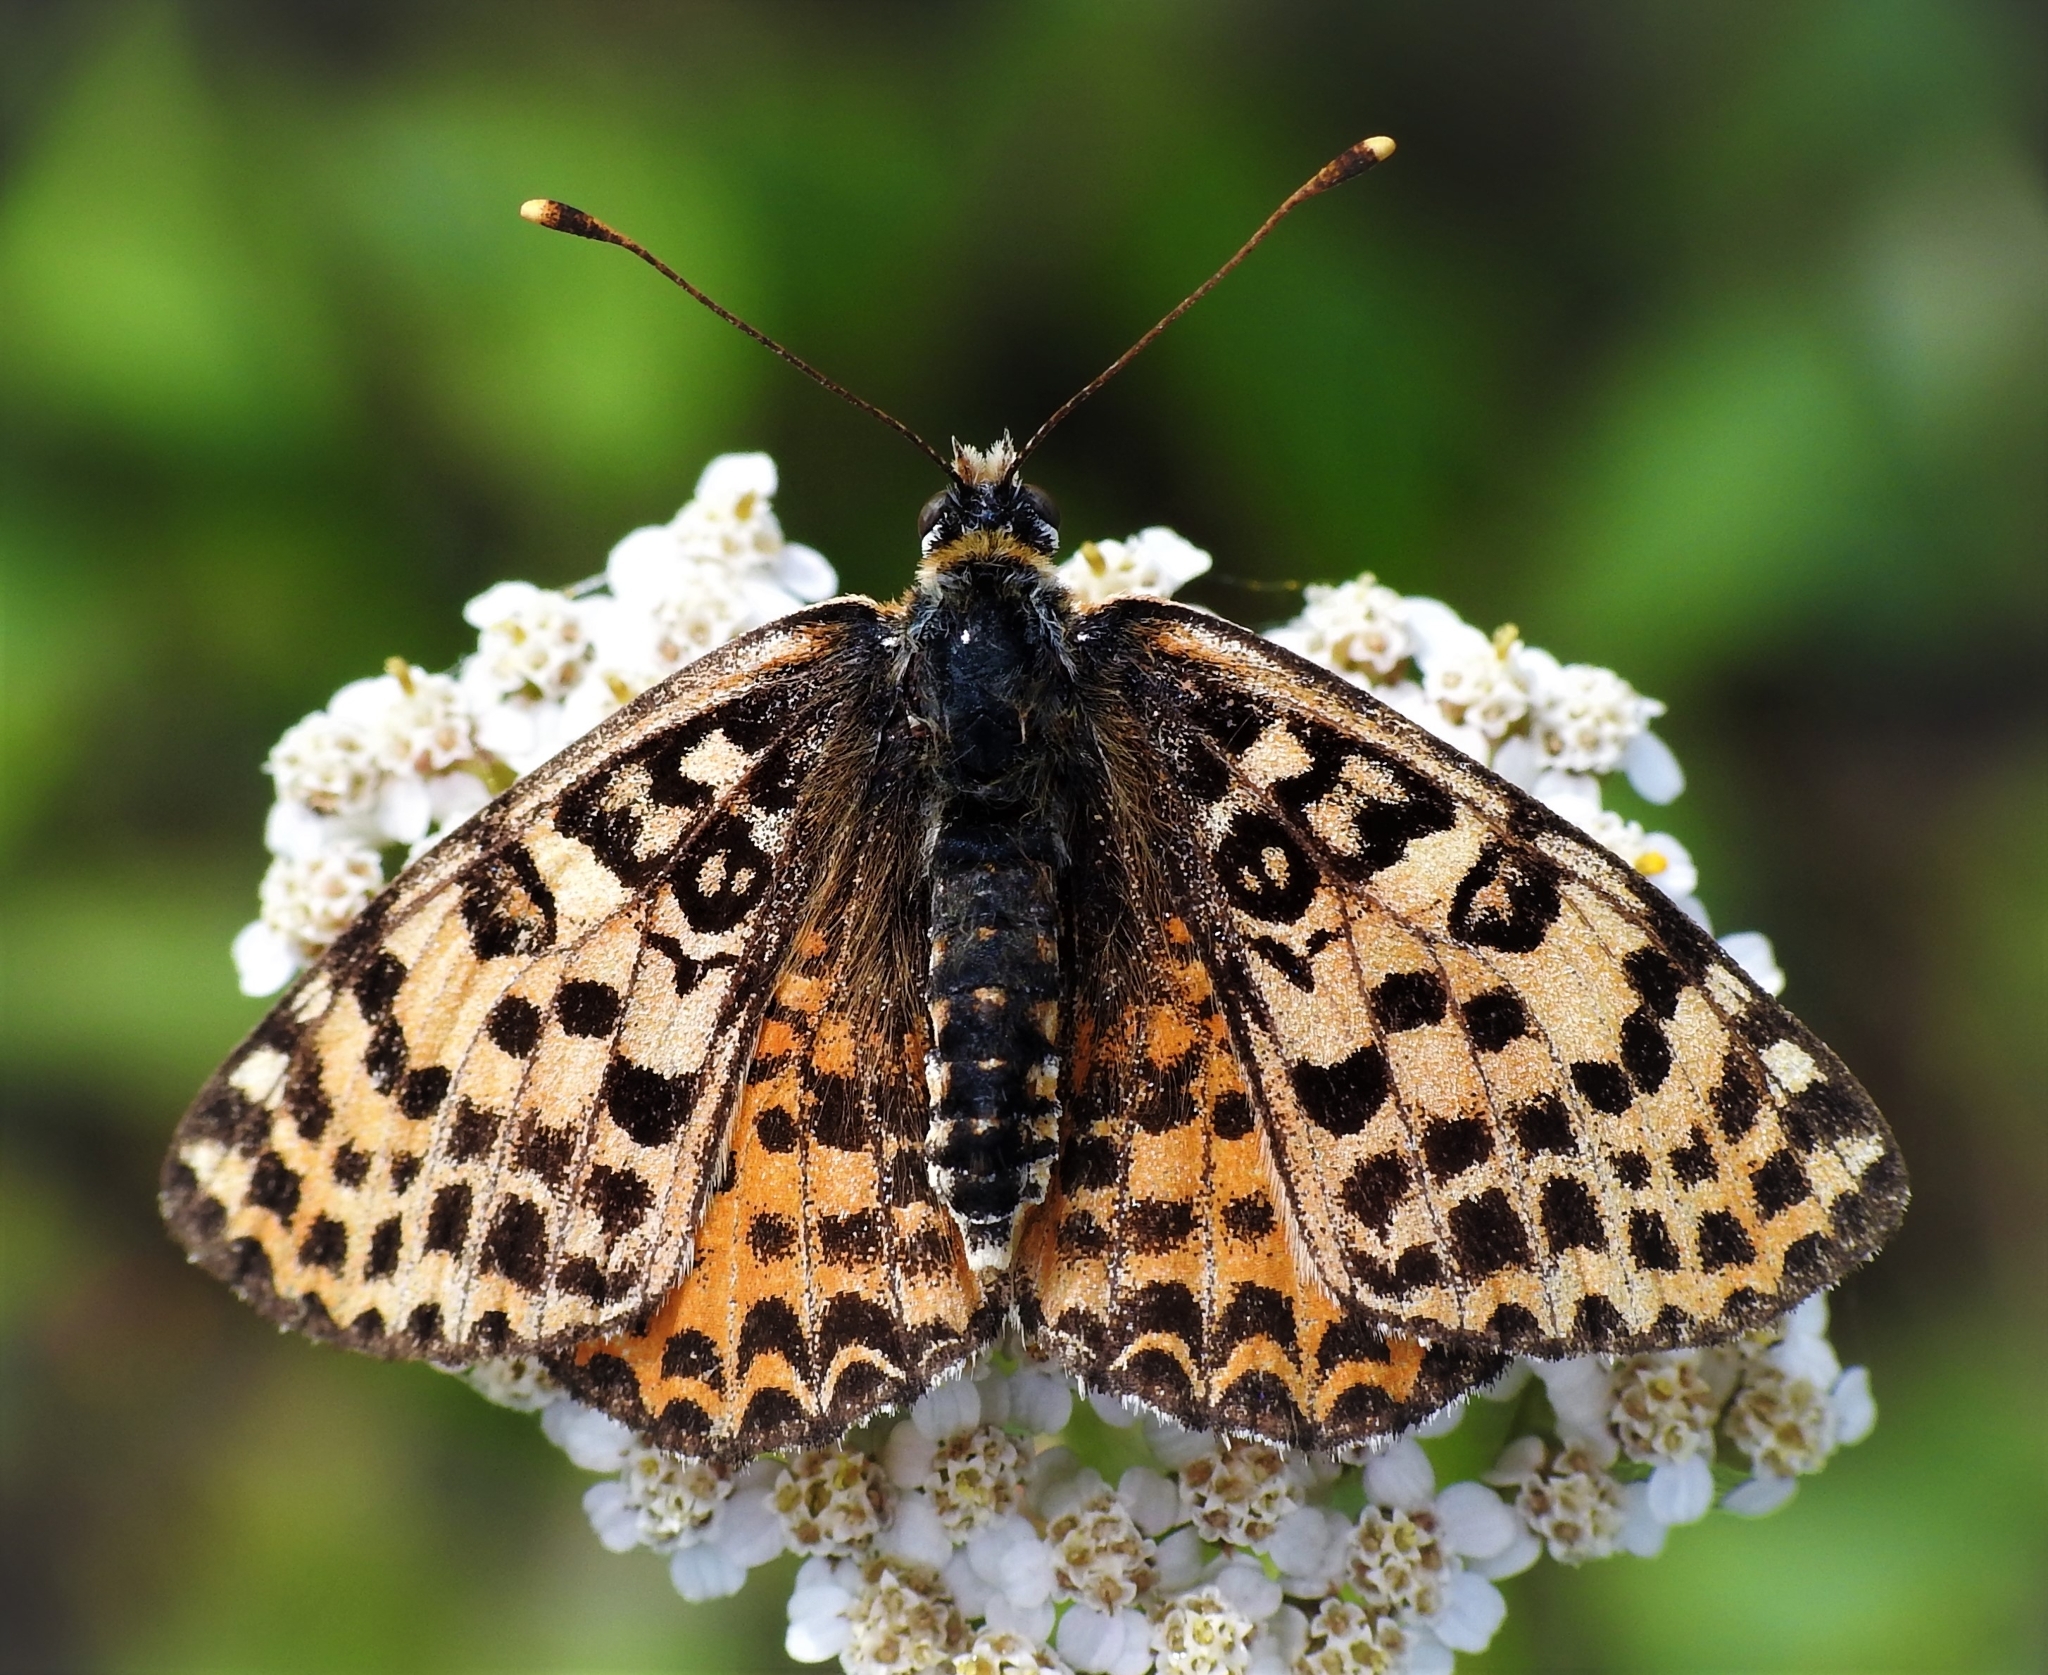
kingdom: Animalia
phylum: Arthropoda
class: Insecta
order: Lepidoptera
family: Nymphalidae
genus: Melitaea
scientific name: Melitaea didyma
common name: Spotted fritillary
